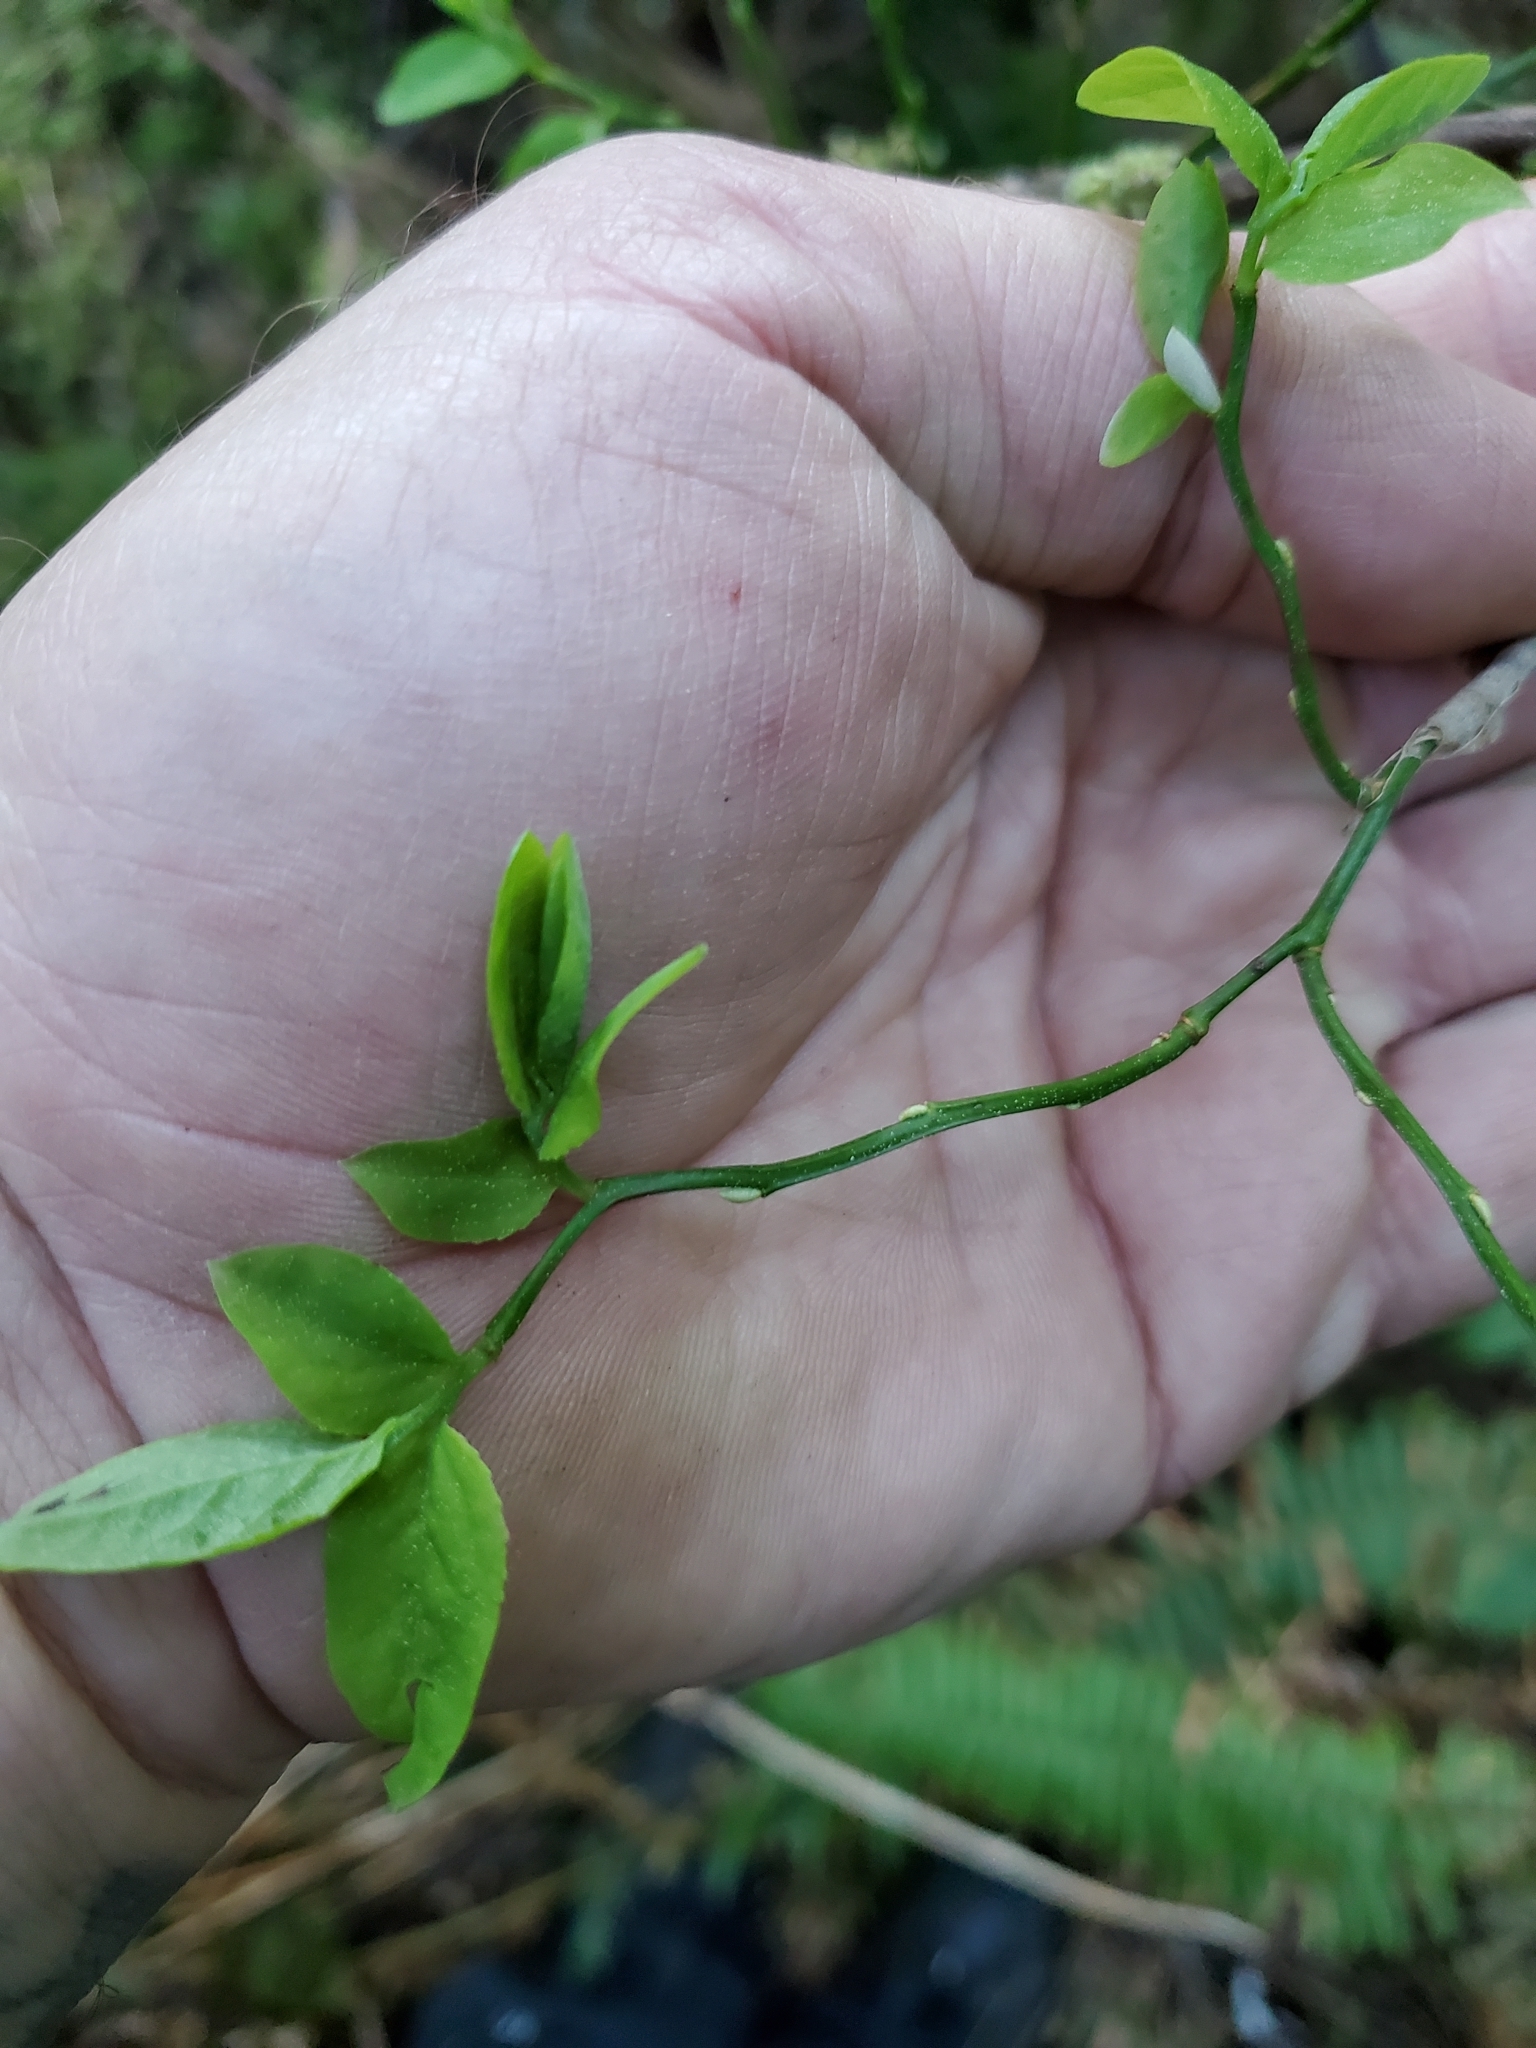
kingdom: Plantae
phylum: Tracheophyta
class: Magnoliopsida
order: Ericales
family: Ericaceae
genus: Vaccinium
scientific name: Vaccinium parvifolium
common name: Red-huckleberry
